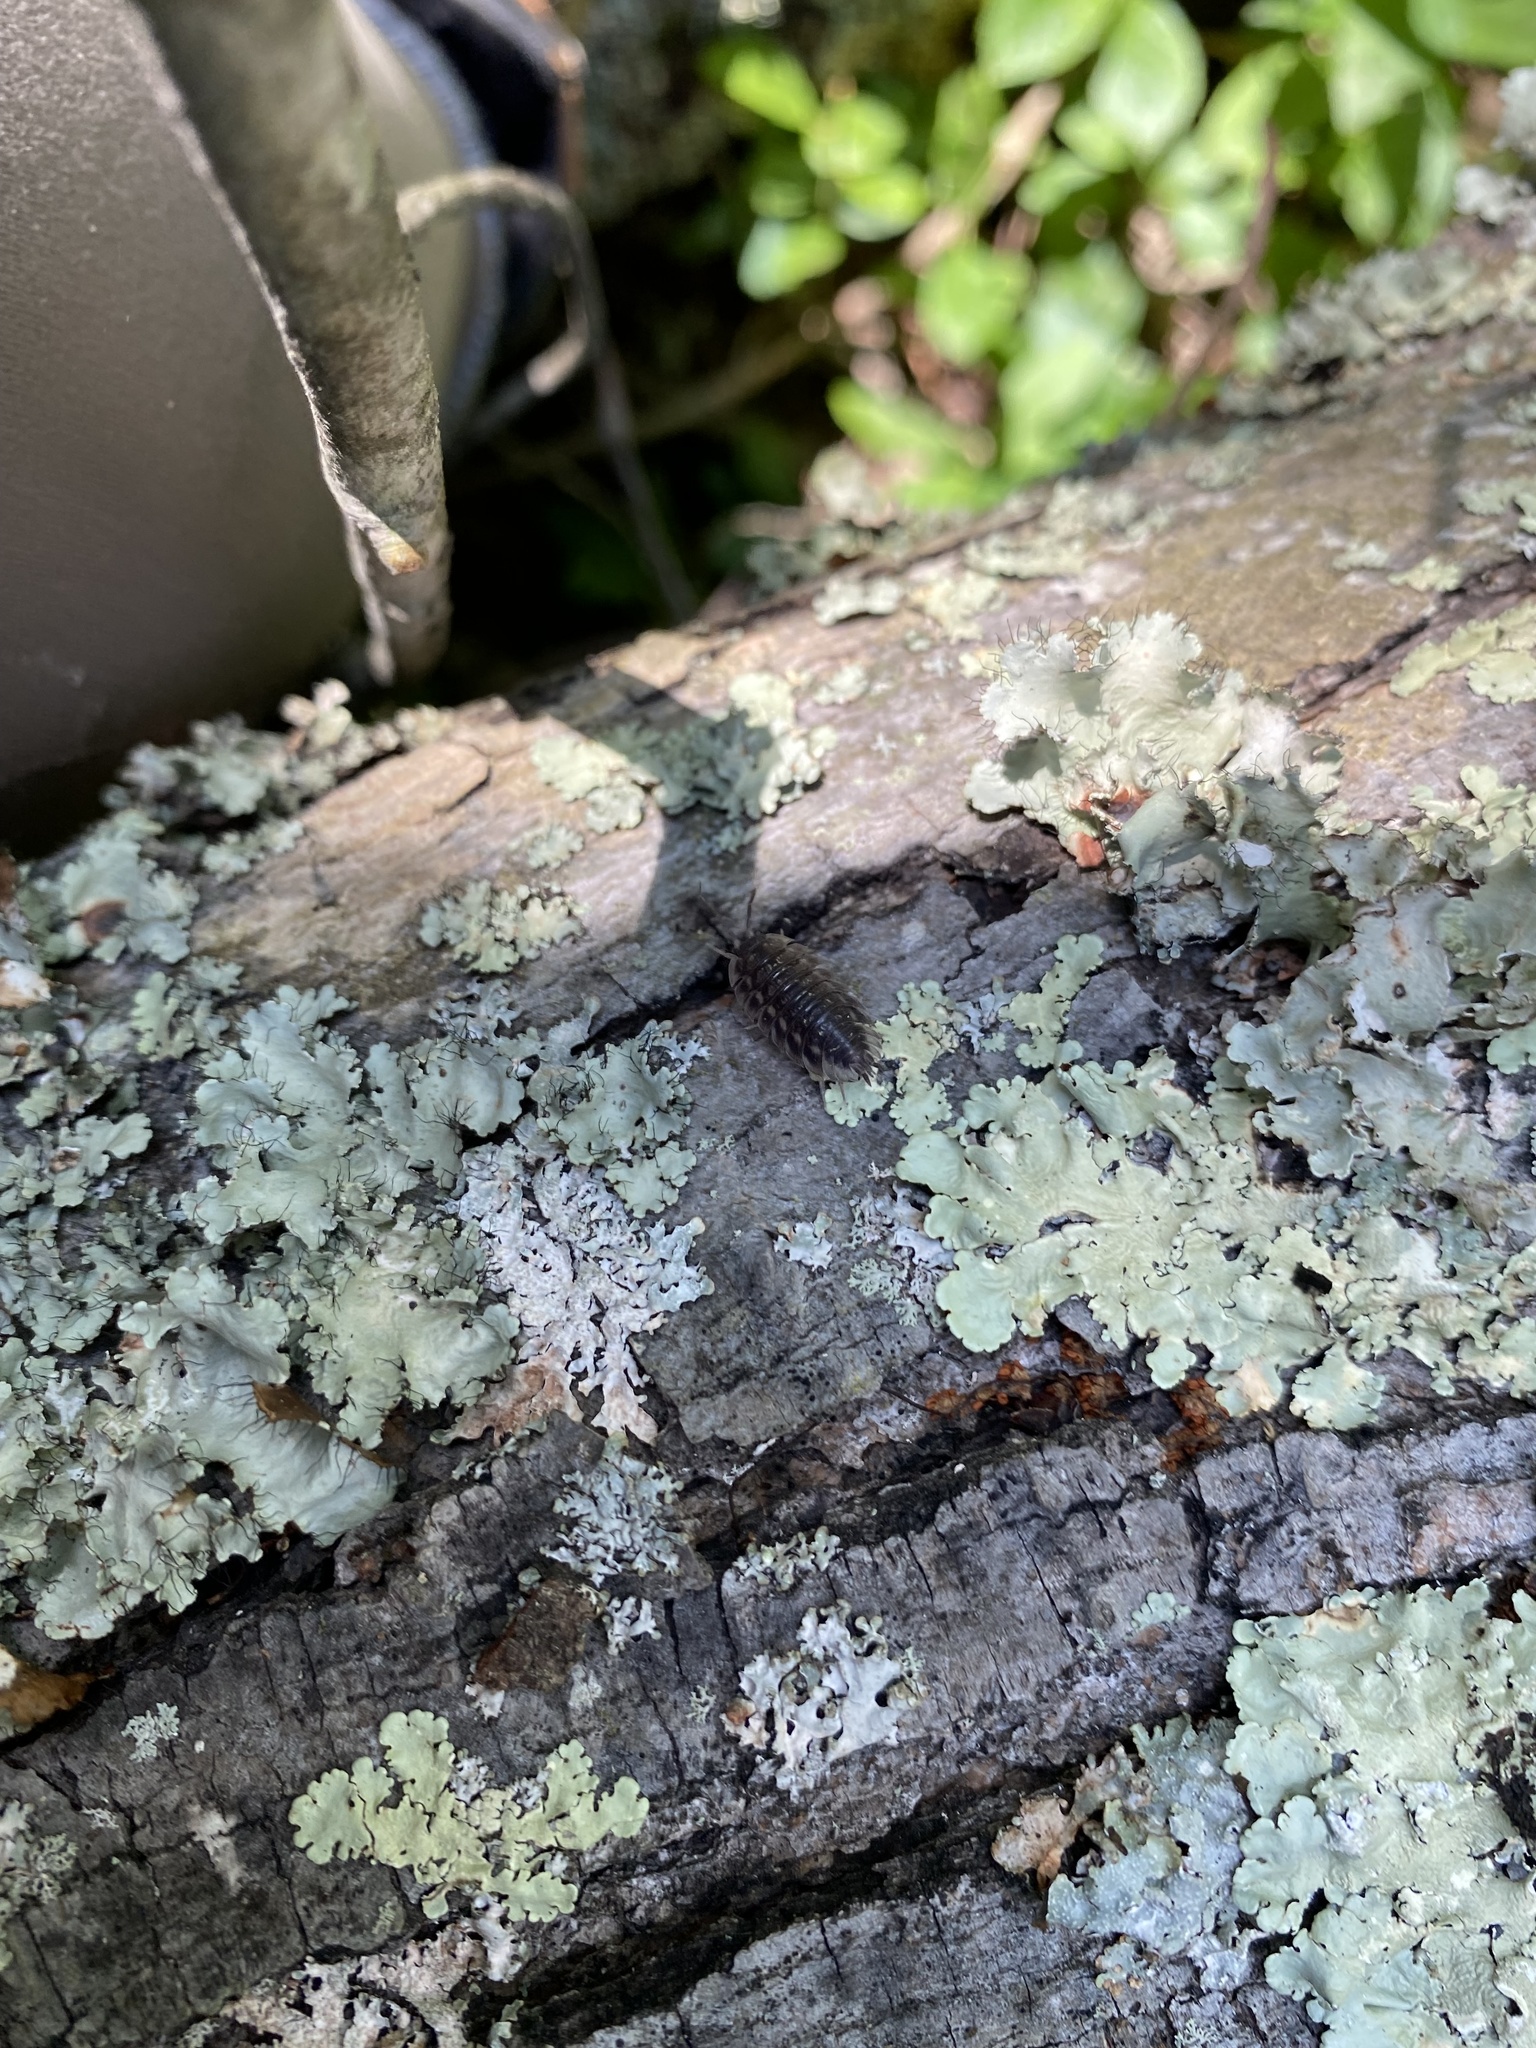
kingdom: Animalia
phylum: Arthropoda
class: Malacostraca
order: Isopoda
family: Oniscidae
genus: Oniscus
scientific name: Oniscus asellus
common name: Common shiny woodlouse
